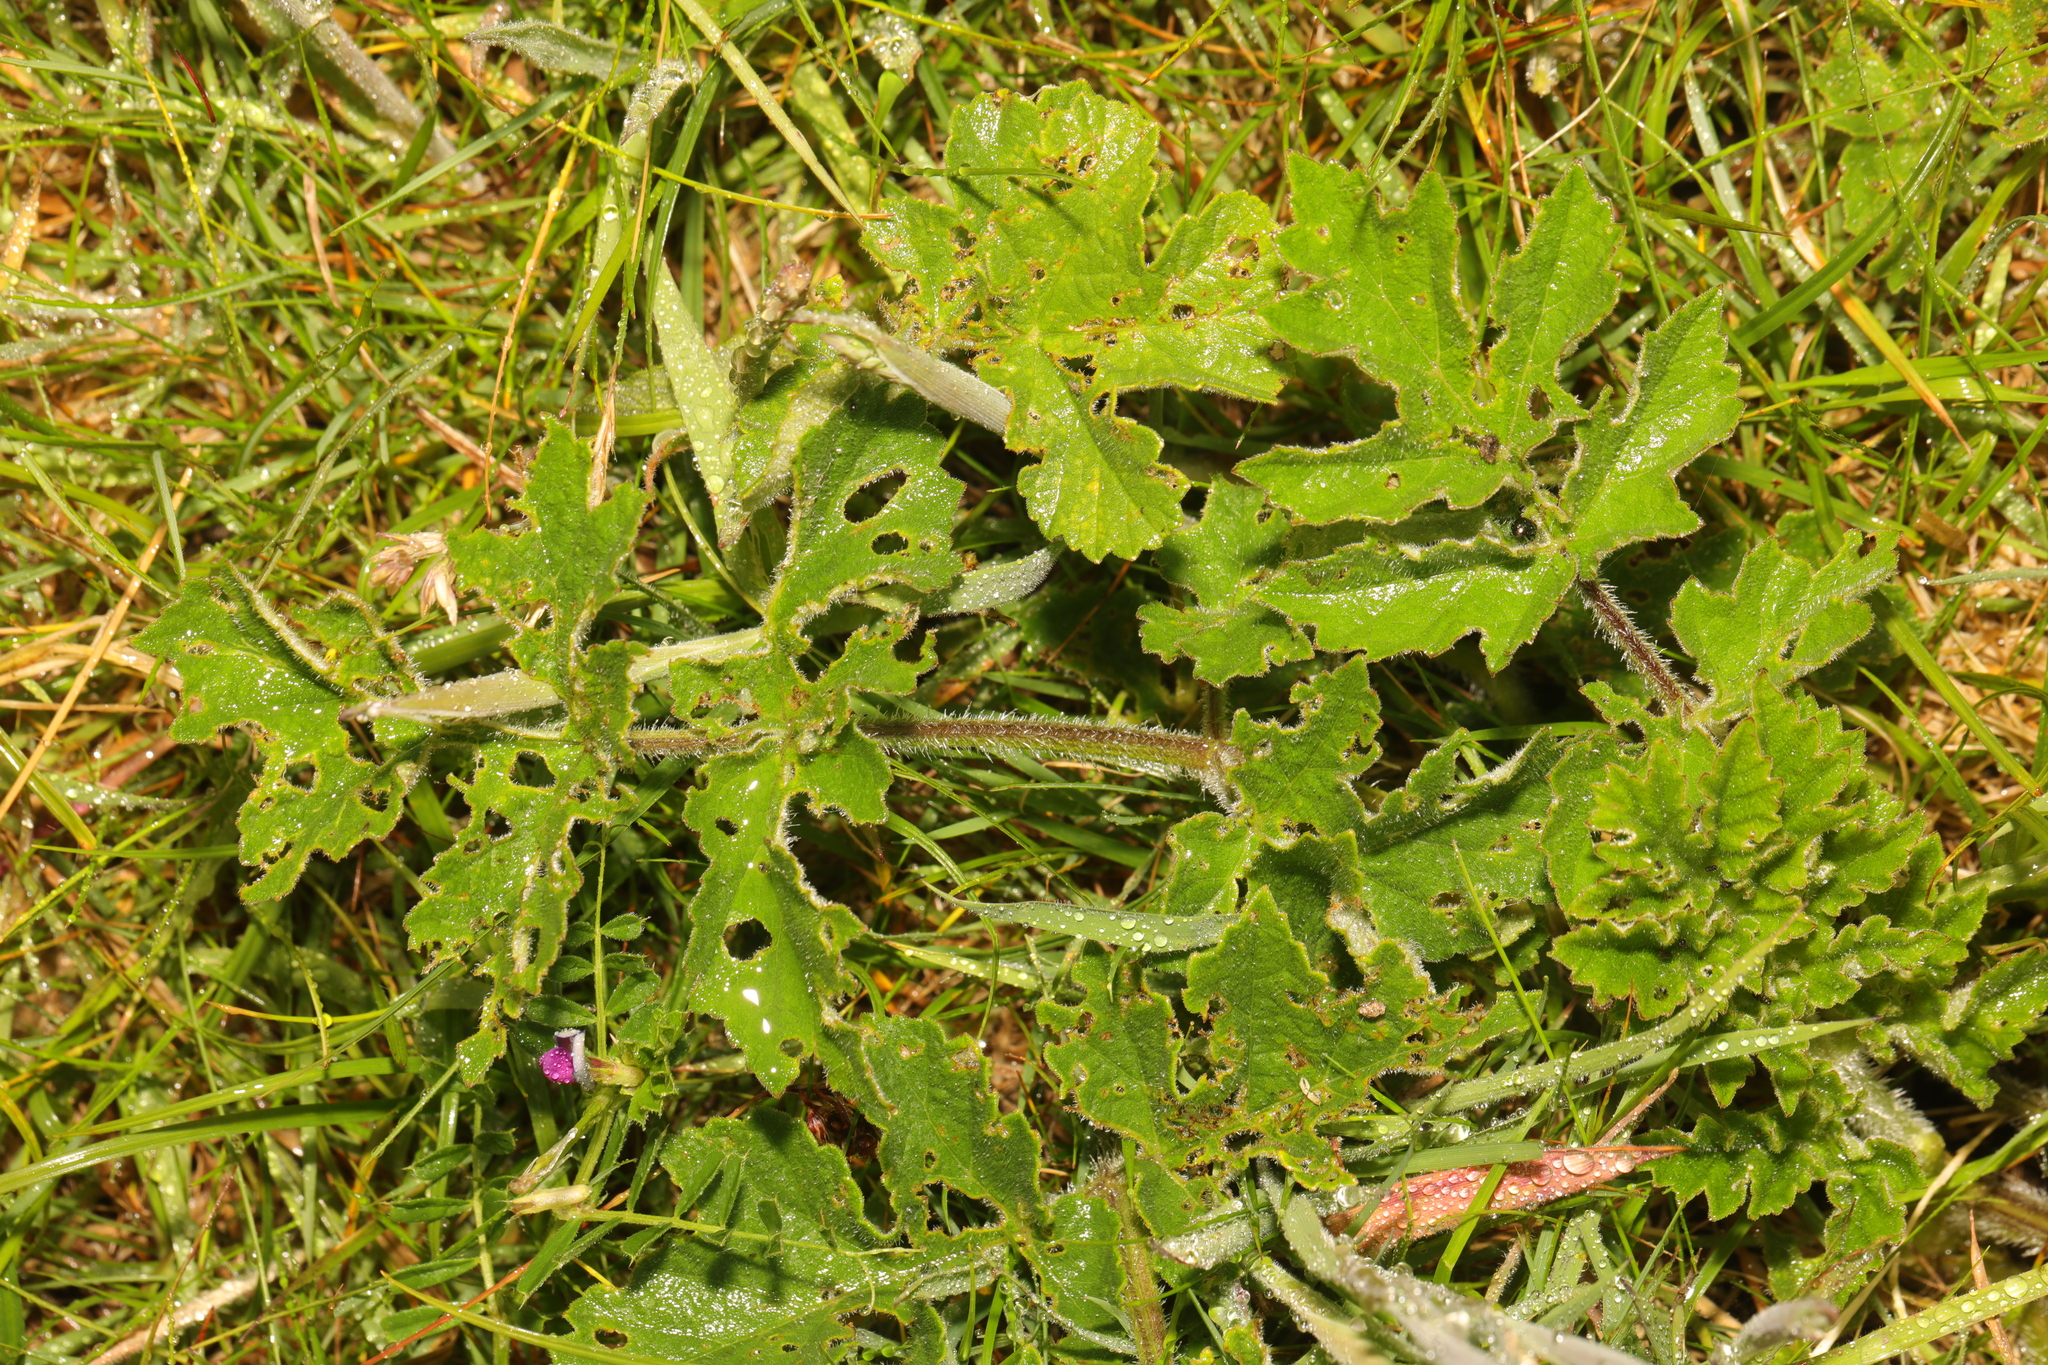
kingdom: Plantae
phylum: Tracheophyta
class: Magnoliopsida
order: Apiales
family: Apiaceae
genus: Heracleum
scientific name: Heracleum sphondylium
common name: Hogweed
